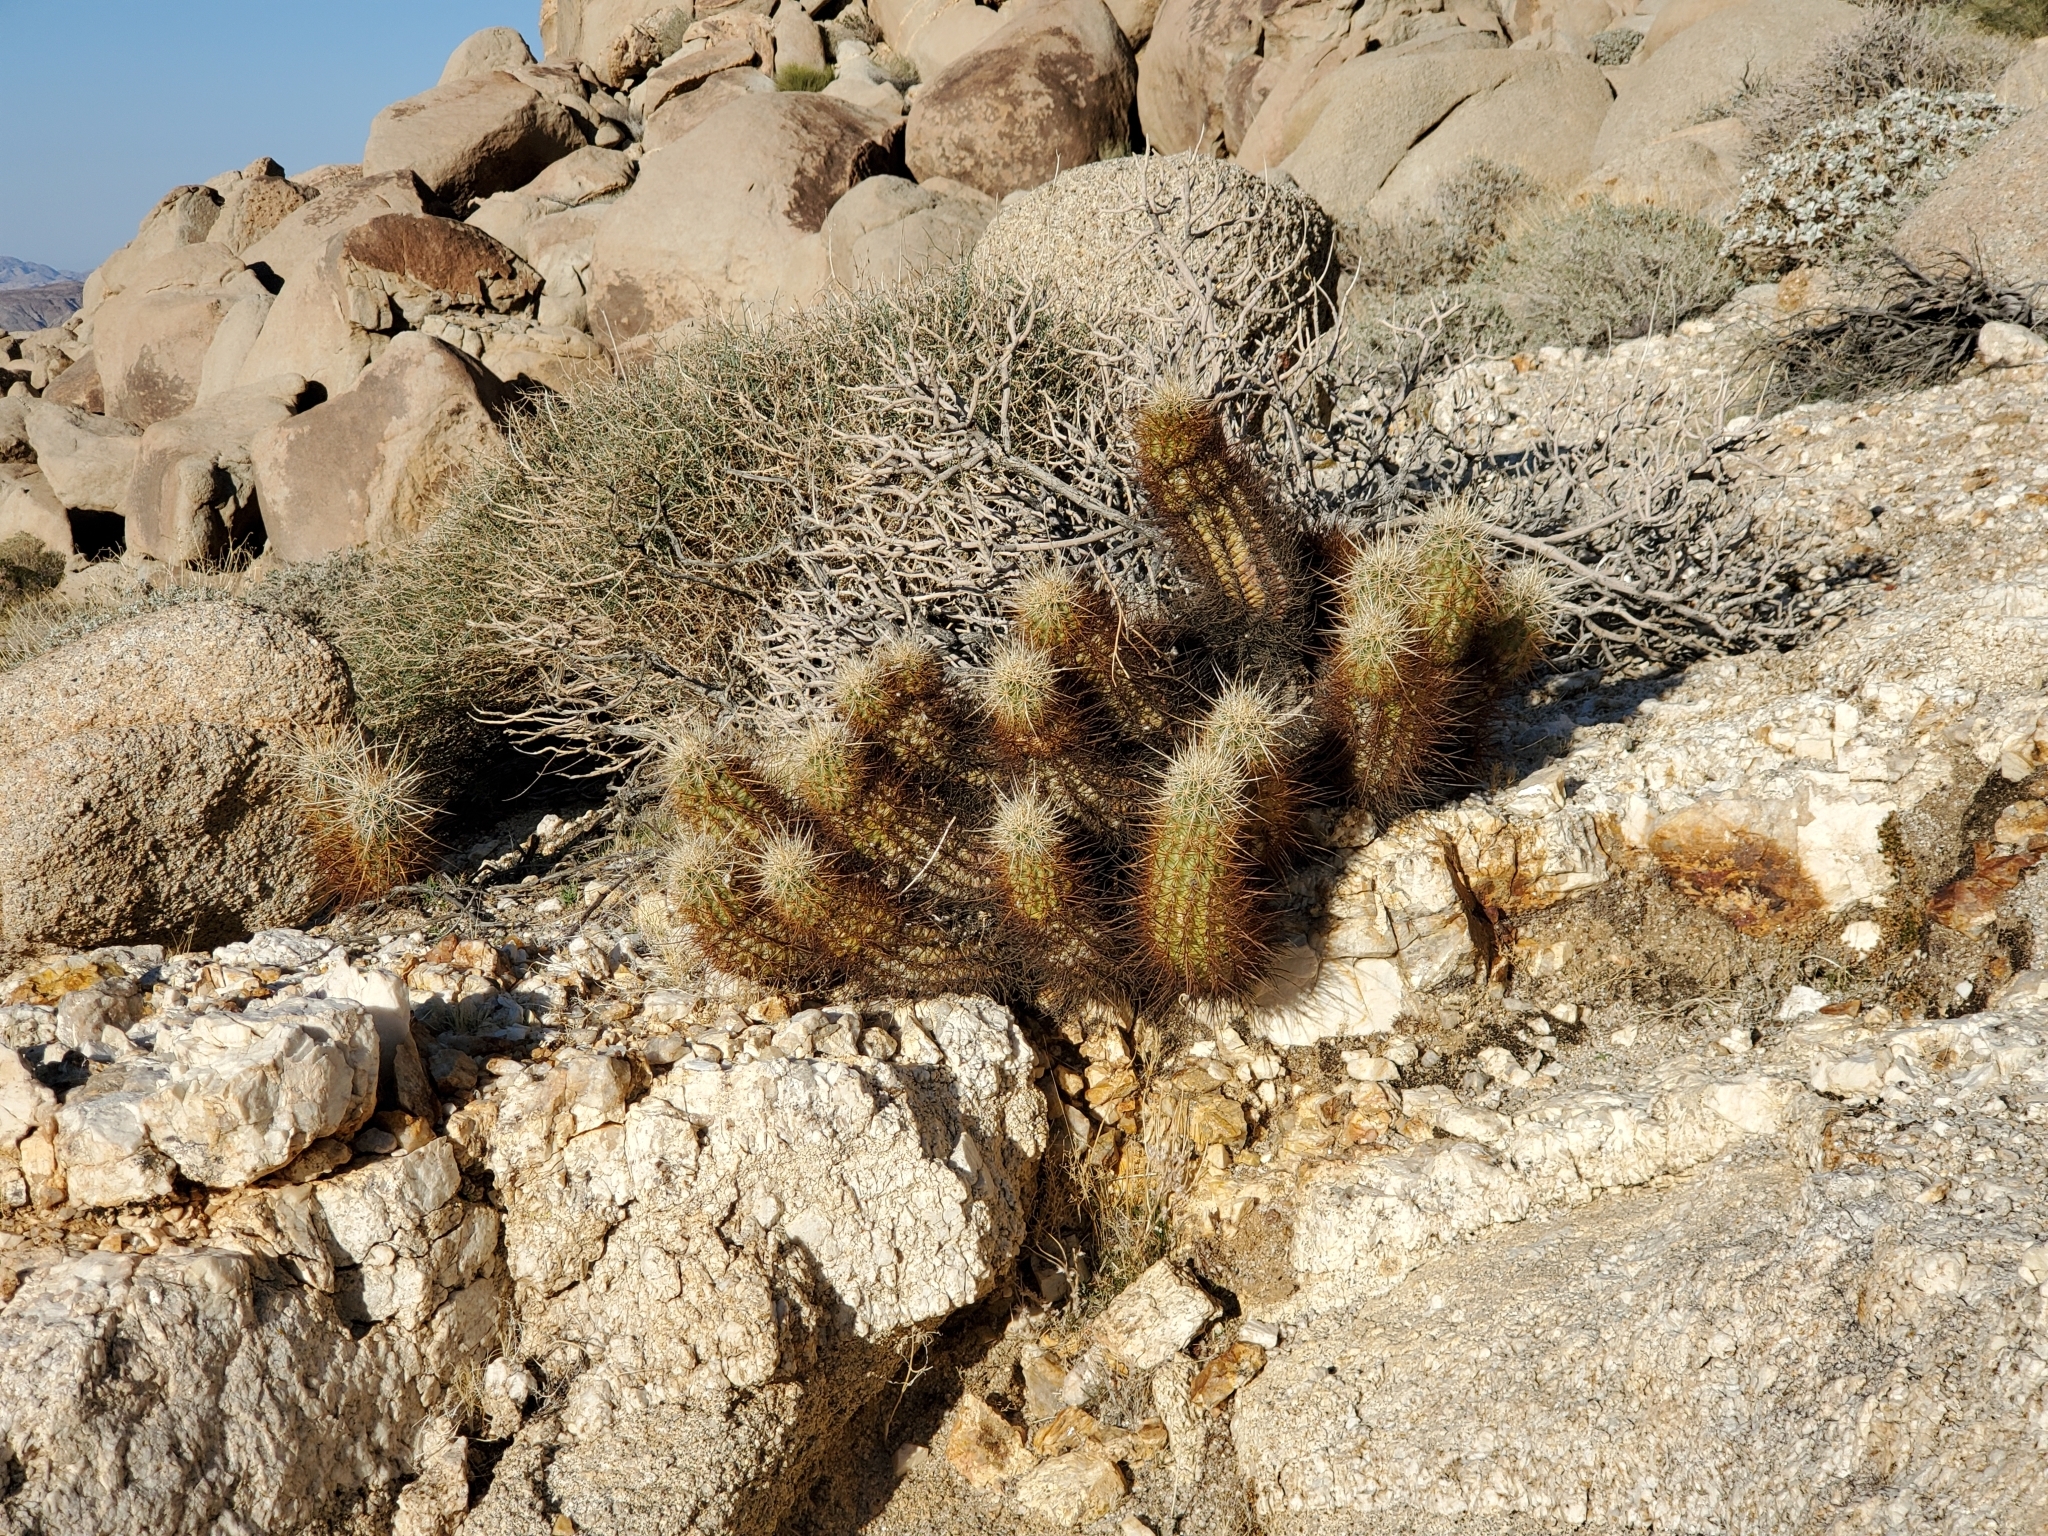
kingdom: Plantae
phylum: Tracheophyta
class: Magnoliopsida
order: Caryophyllales
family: Cactaceae
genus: Echinocereus
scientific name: Echinocereus engelmannii
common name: Engelmann's hedgehog cactus
